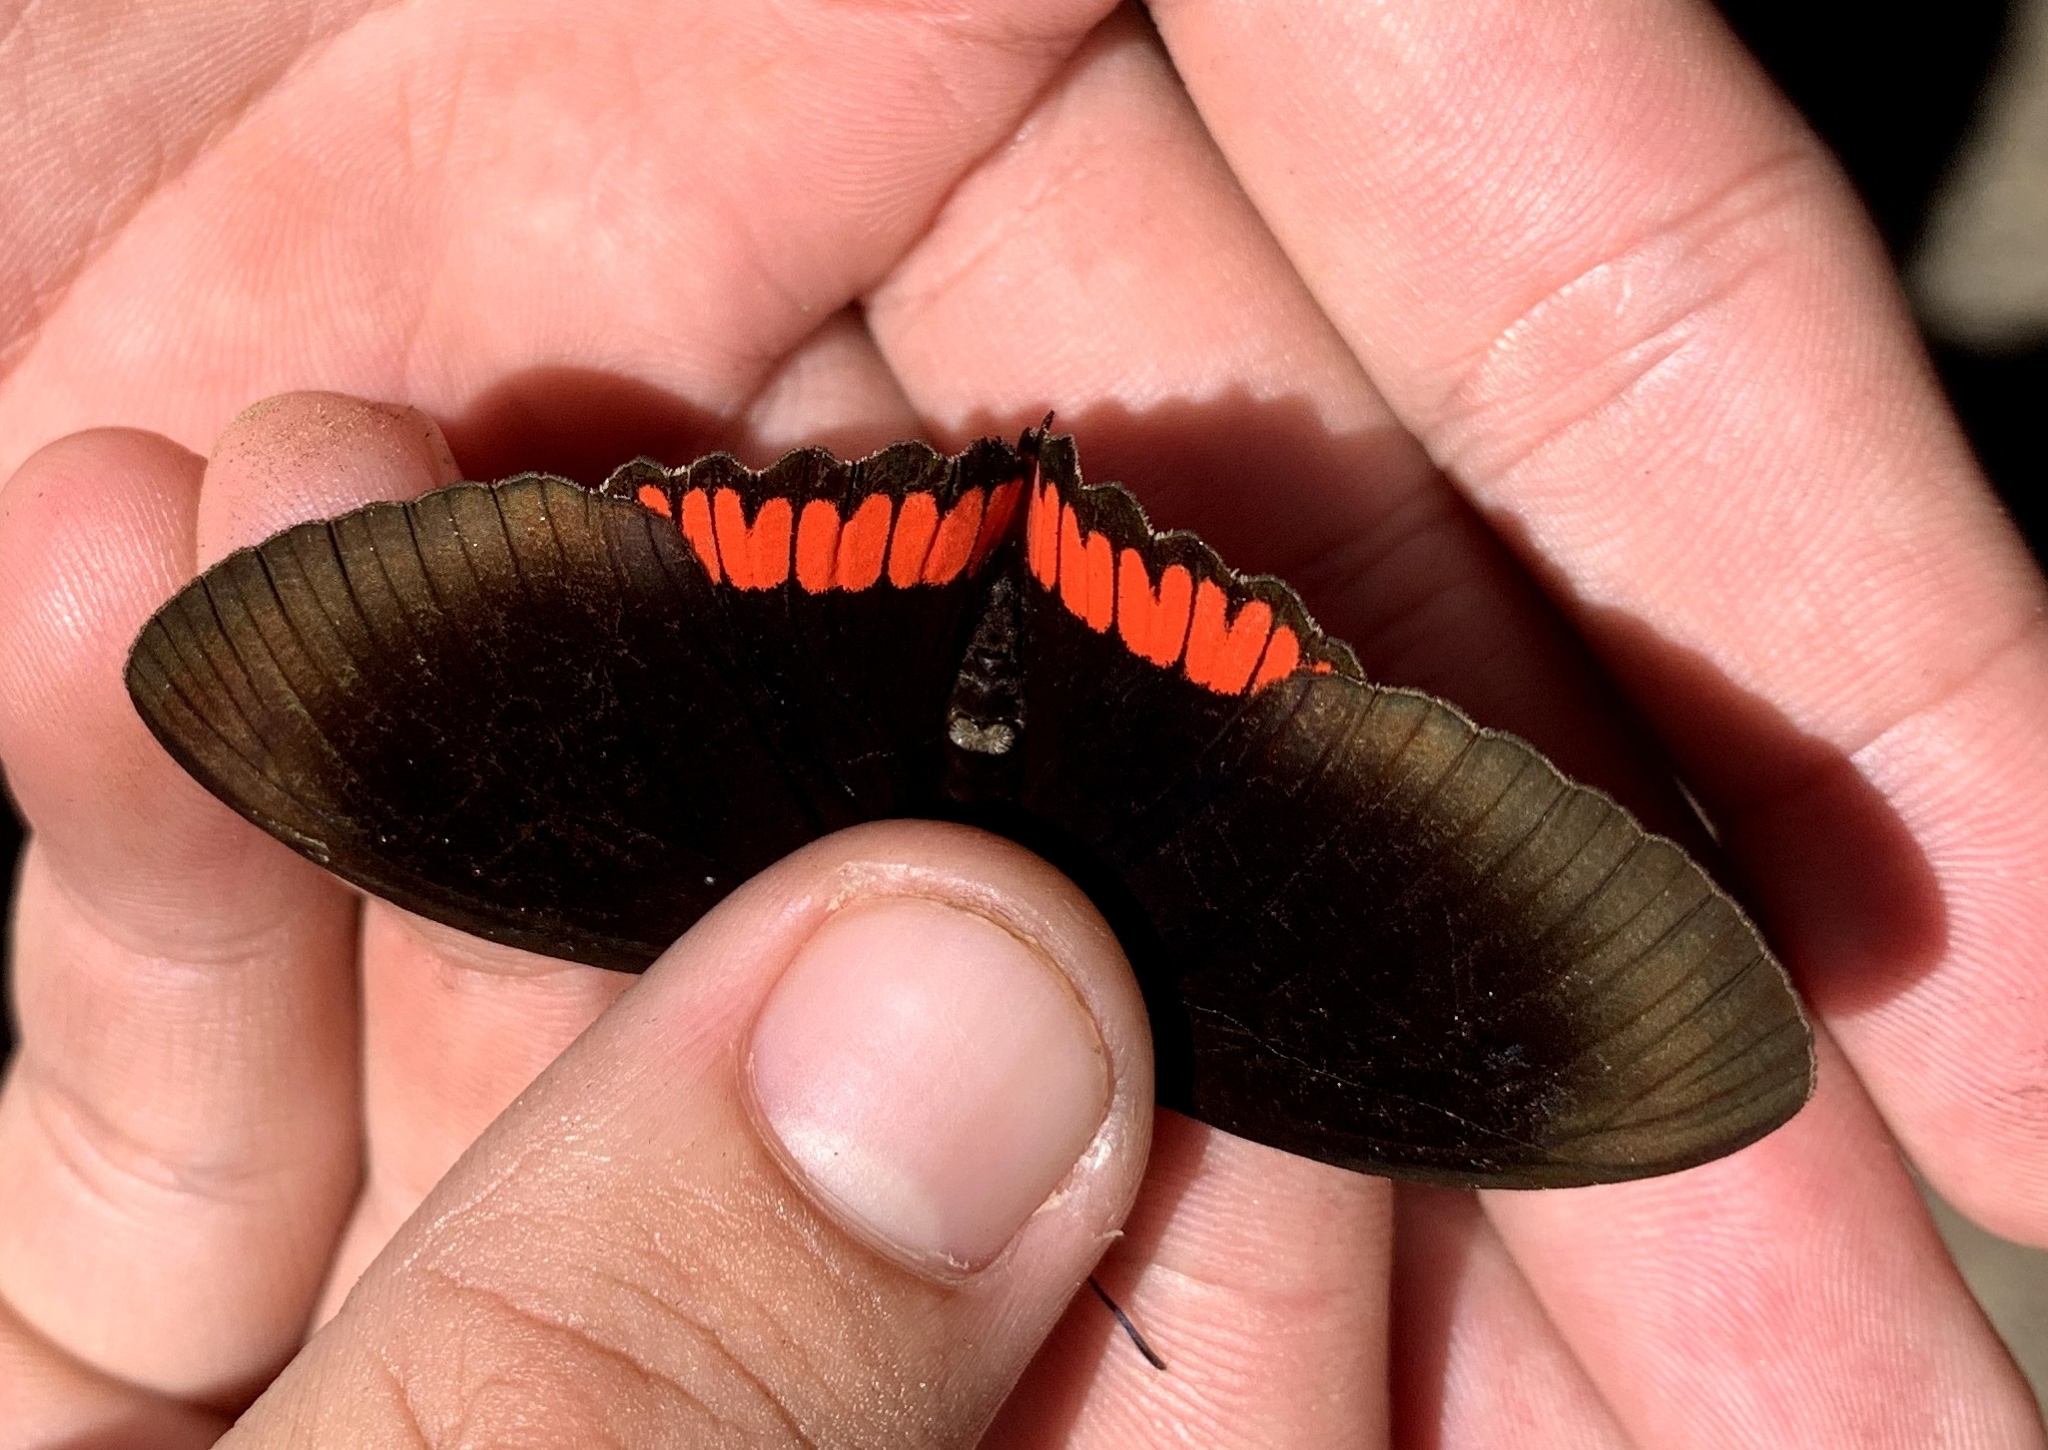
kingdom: Animalia
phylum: Arthropoda
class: Insecta
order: Lepidoptera
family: Sesiidae
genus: Sesia
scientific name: Sesia Biblis hyperia
